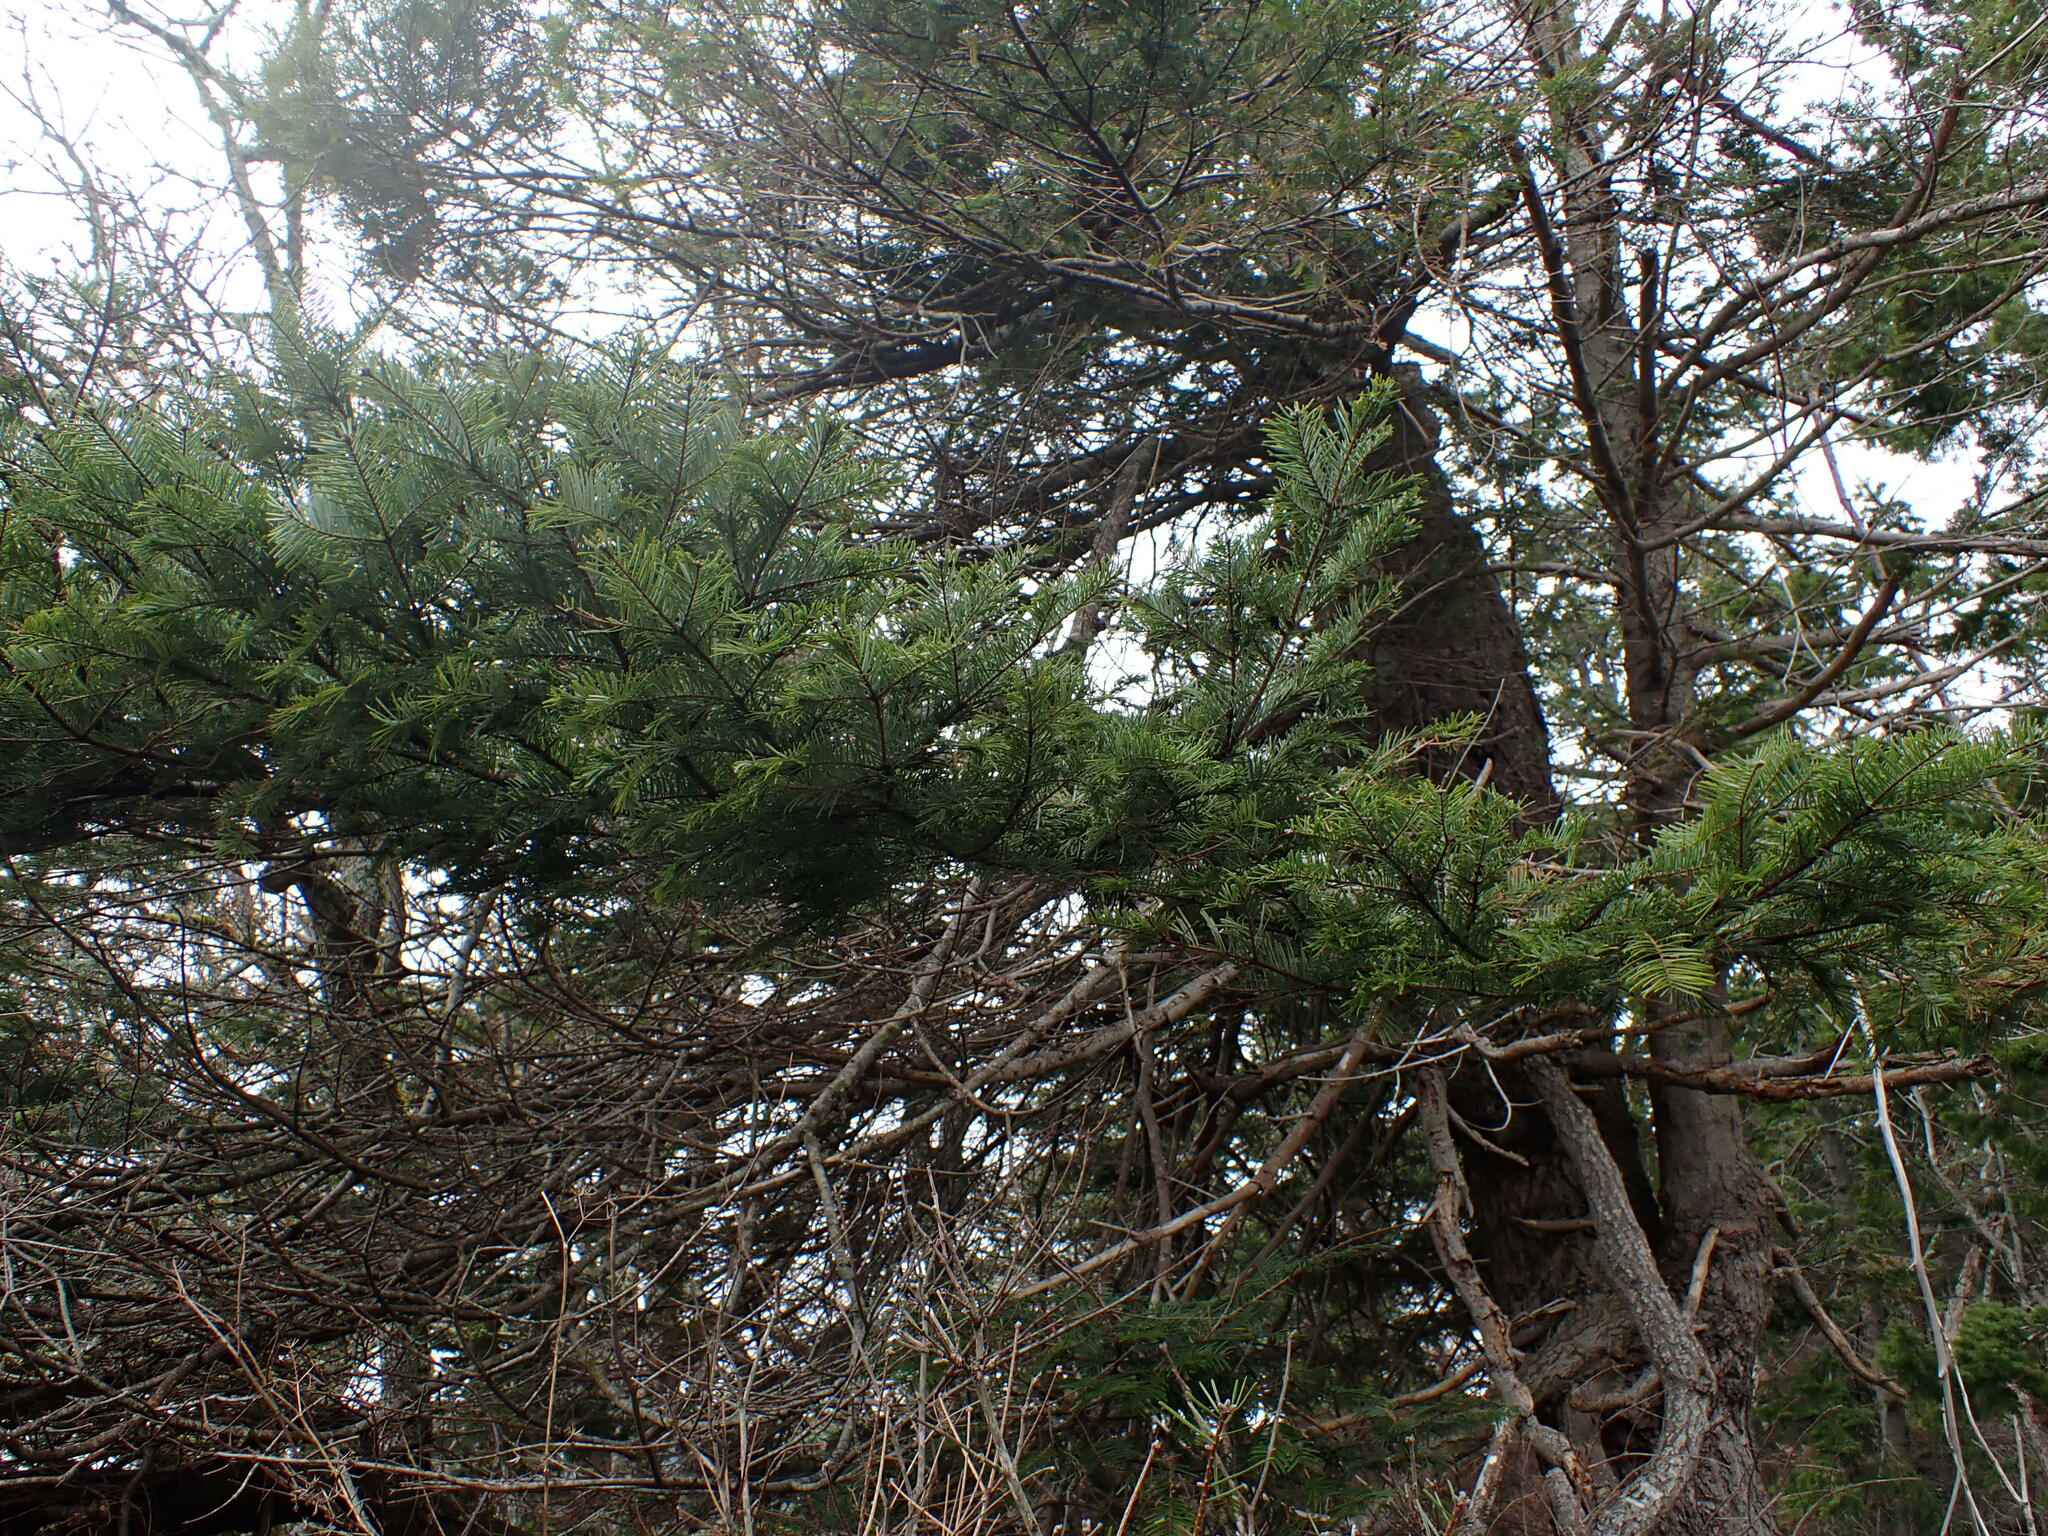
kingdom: Plantae
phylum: Tracheophyta
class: Pinopsida
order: Pinales
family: Pinaceae
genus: Abies
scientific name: Abies grandis
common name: Giant fir
